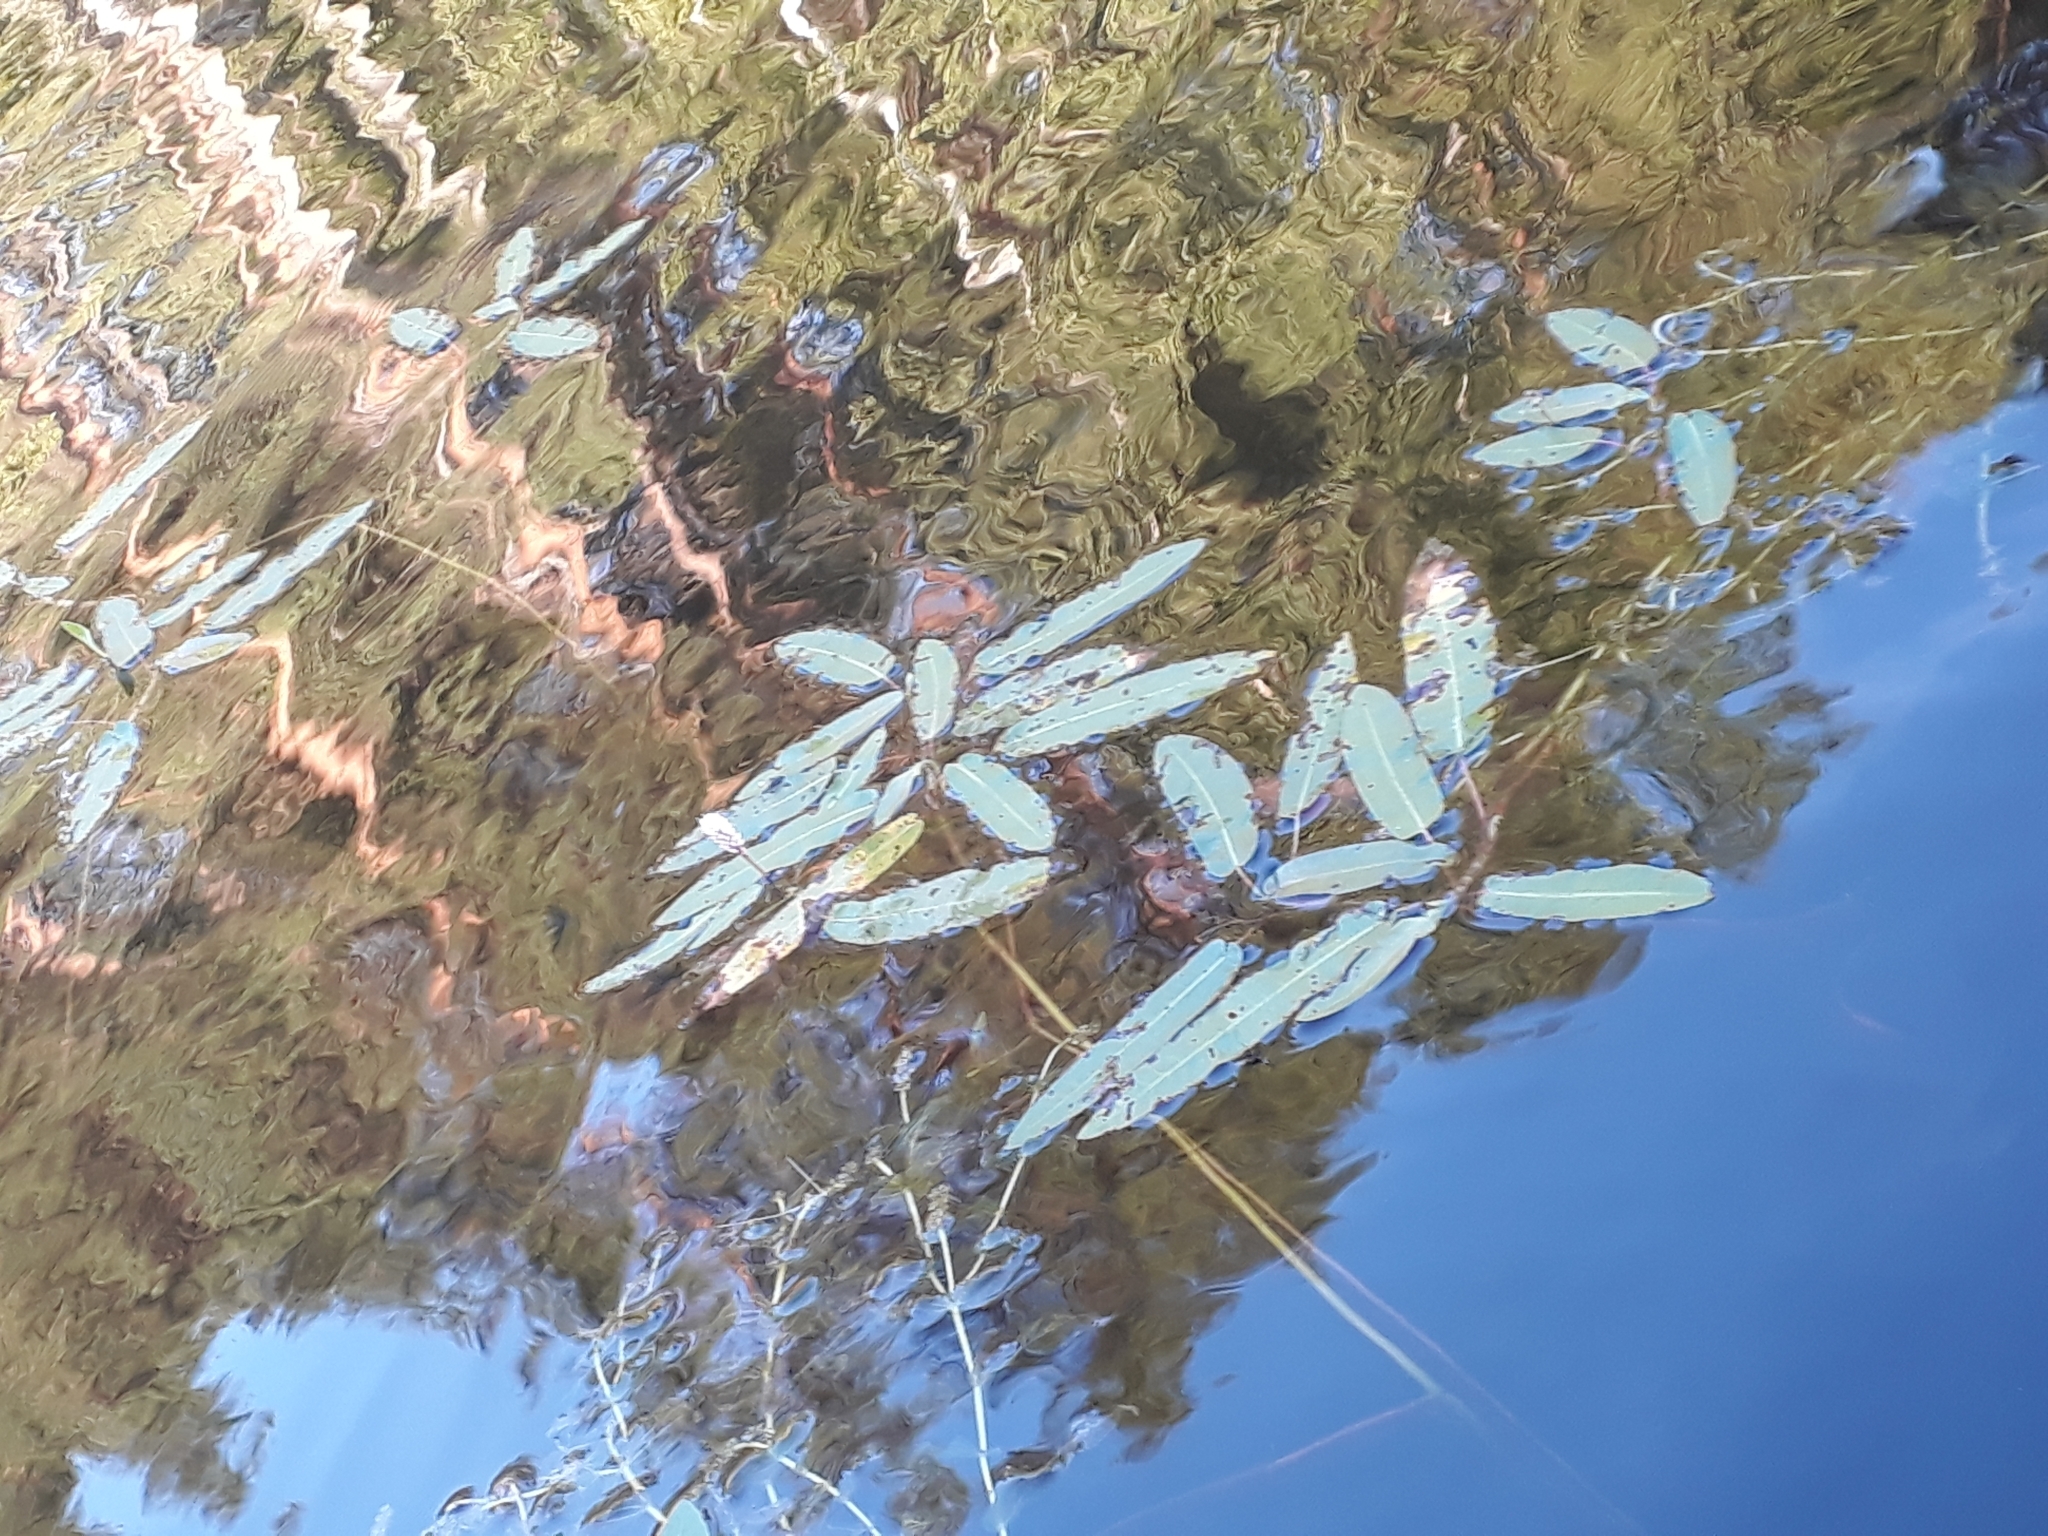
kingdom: Plantae
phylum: Tracheophyta
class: Magnoliopsida
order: Caryophyllales
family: Polygonaceae
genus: Persicaria
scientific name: Persicaria amphibia
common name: Amphibious bistort
